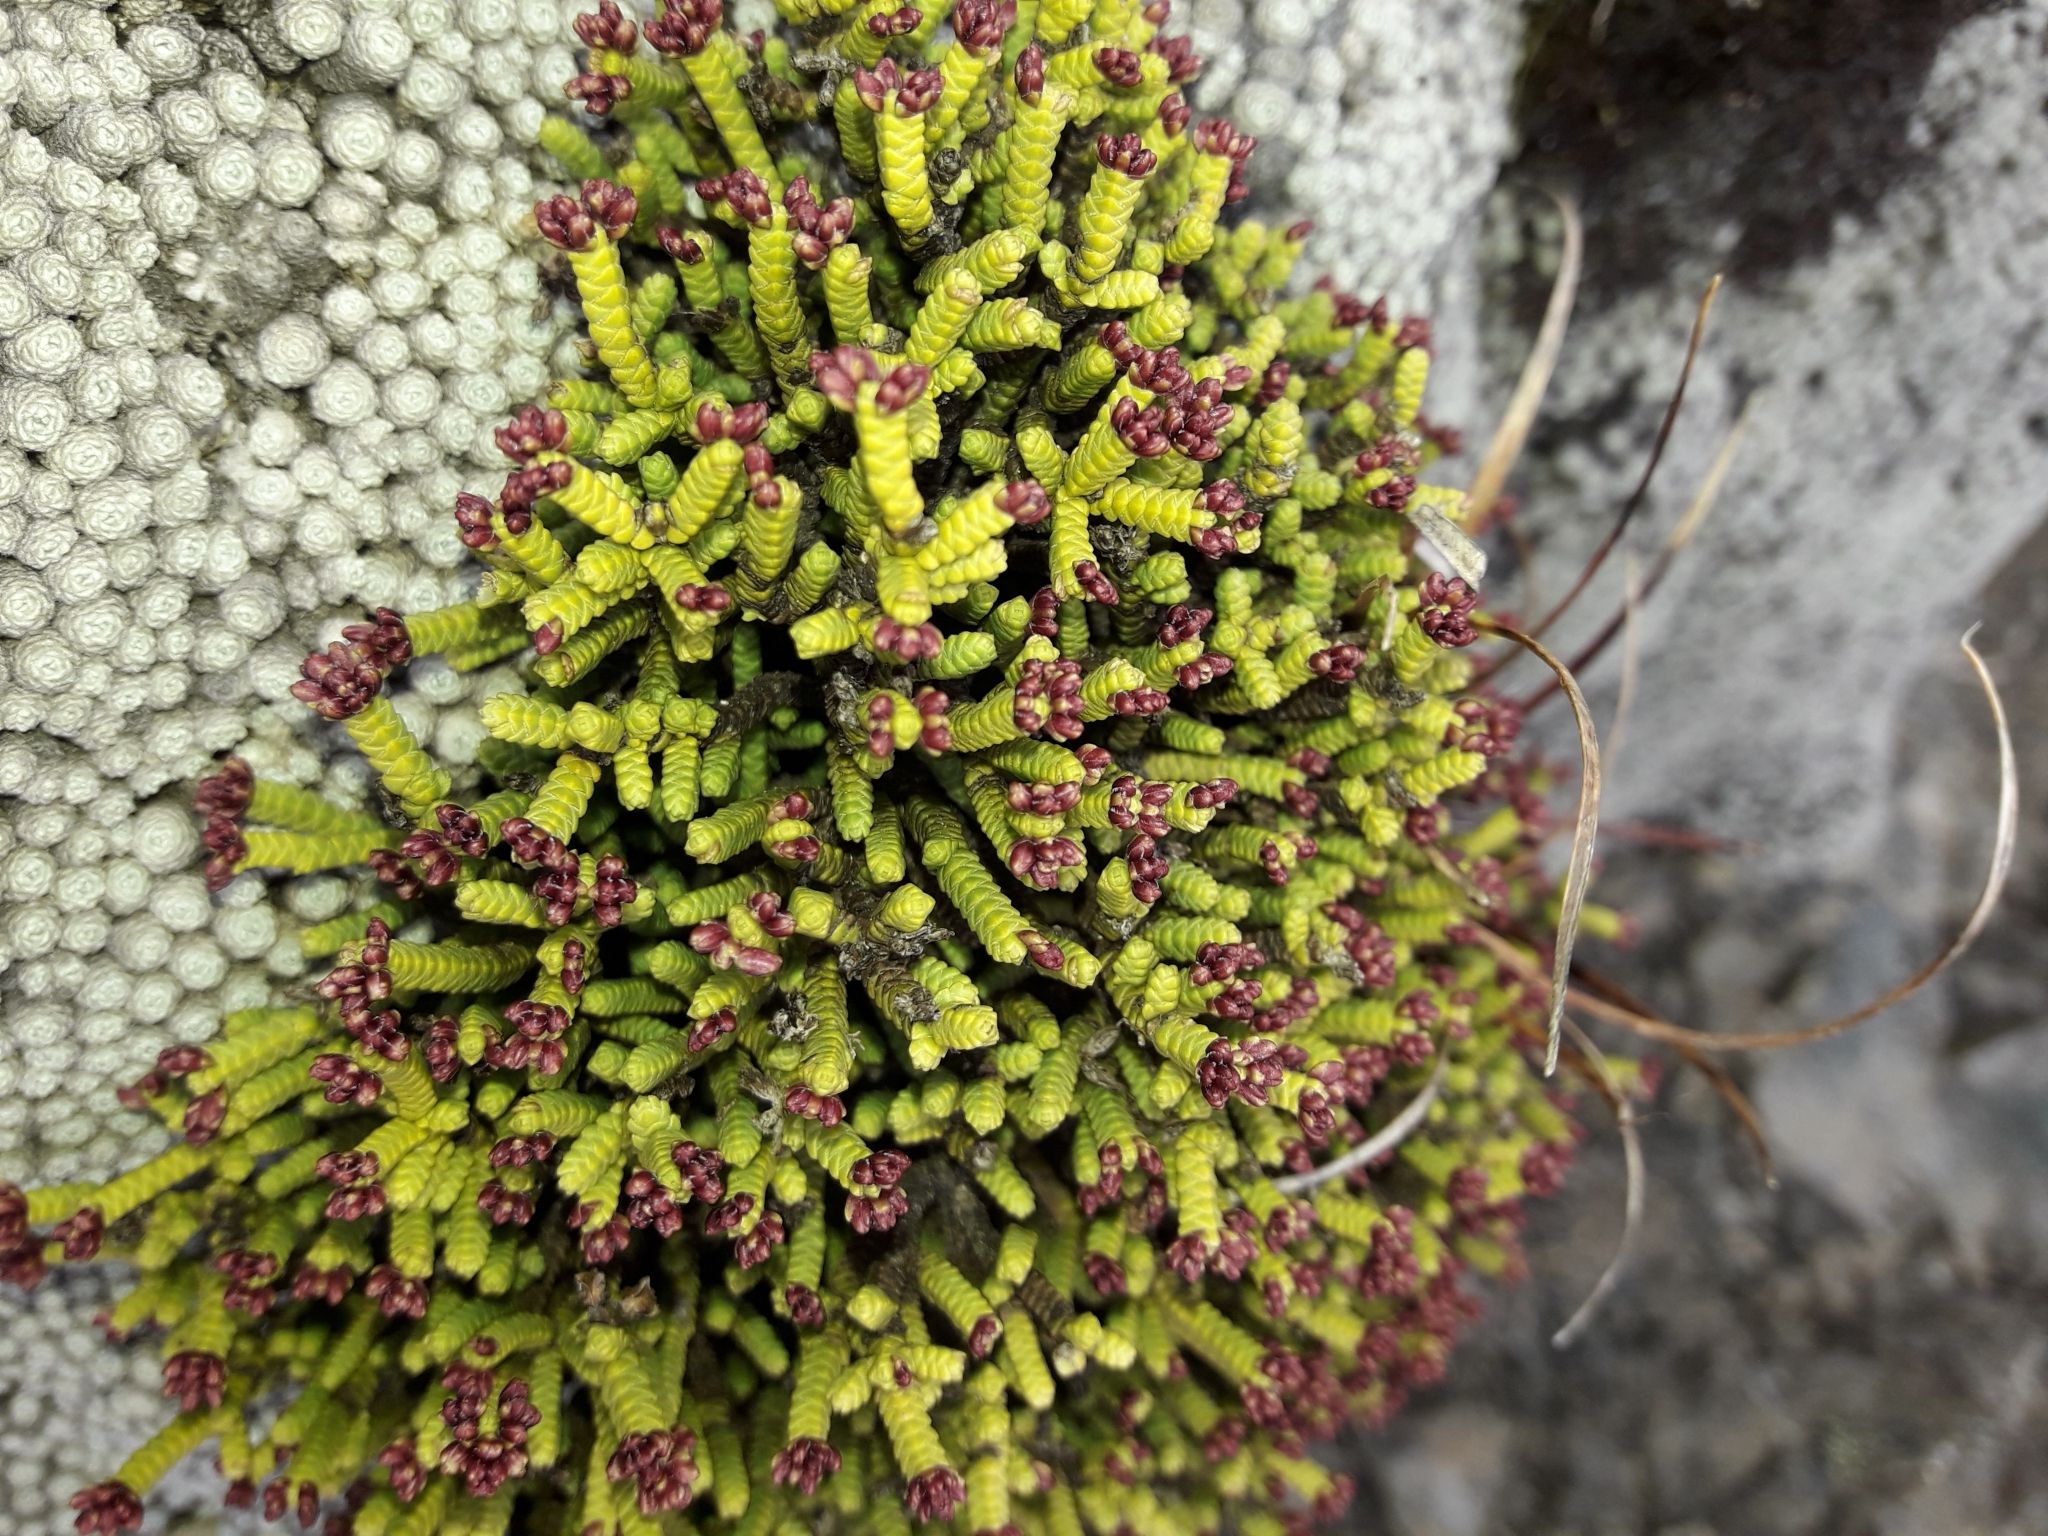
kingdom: Plantae
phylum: Tracheophyta
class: Magnoliopsida
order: Lamiales
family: Plantaginaceae
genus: Veronica
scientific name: Veronica quadrifaria
